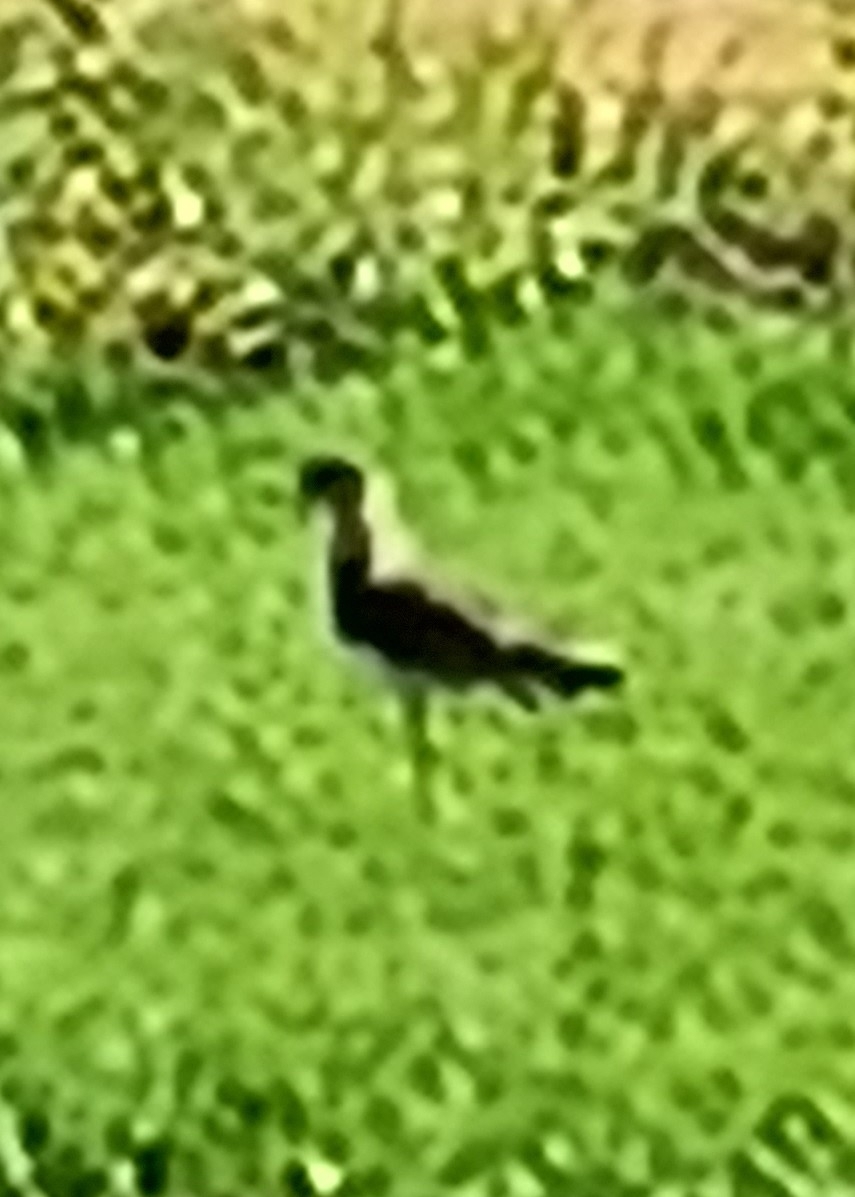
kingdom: Animalia
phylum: Chordata
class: Aves
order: Charadriiformes
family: Charadriidae
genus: Vanellus
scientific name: Vanellus chilensis
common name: Southern lapwing
